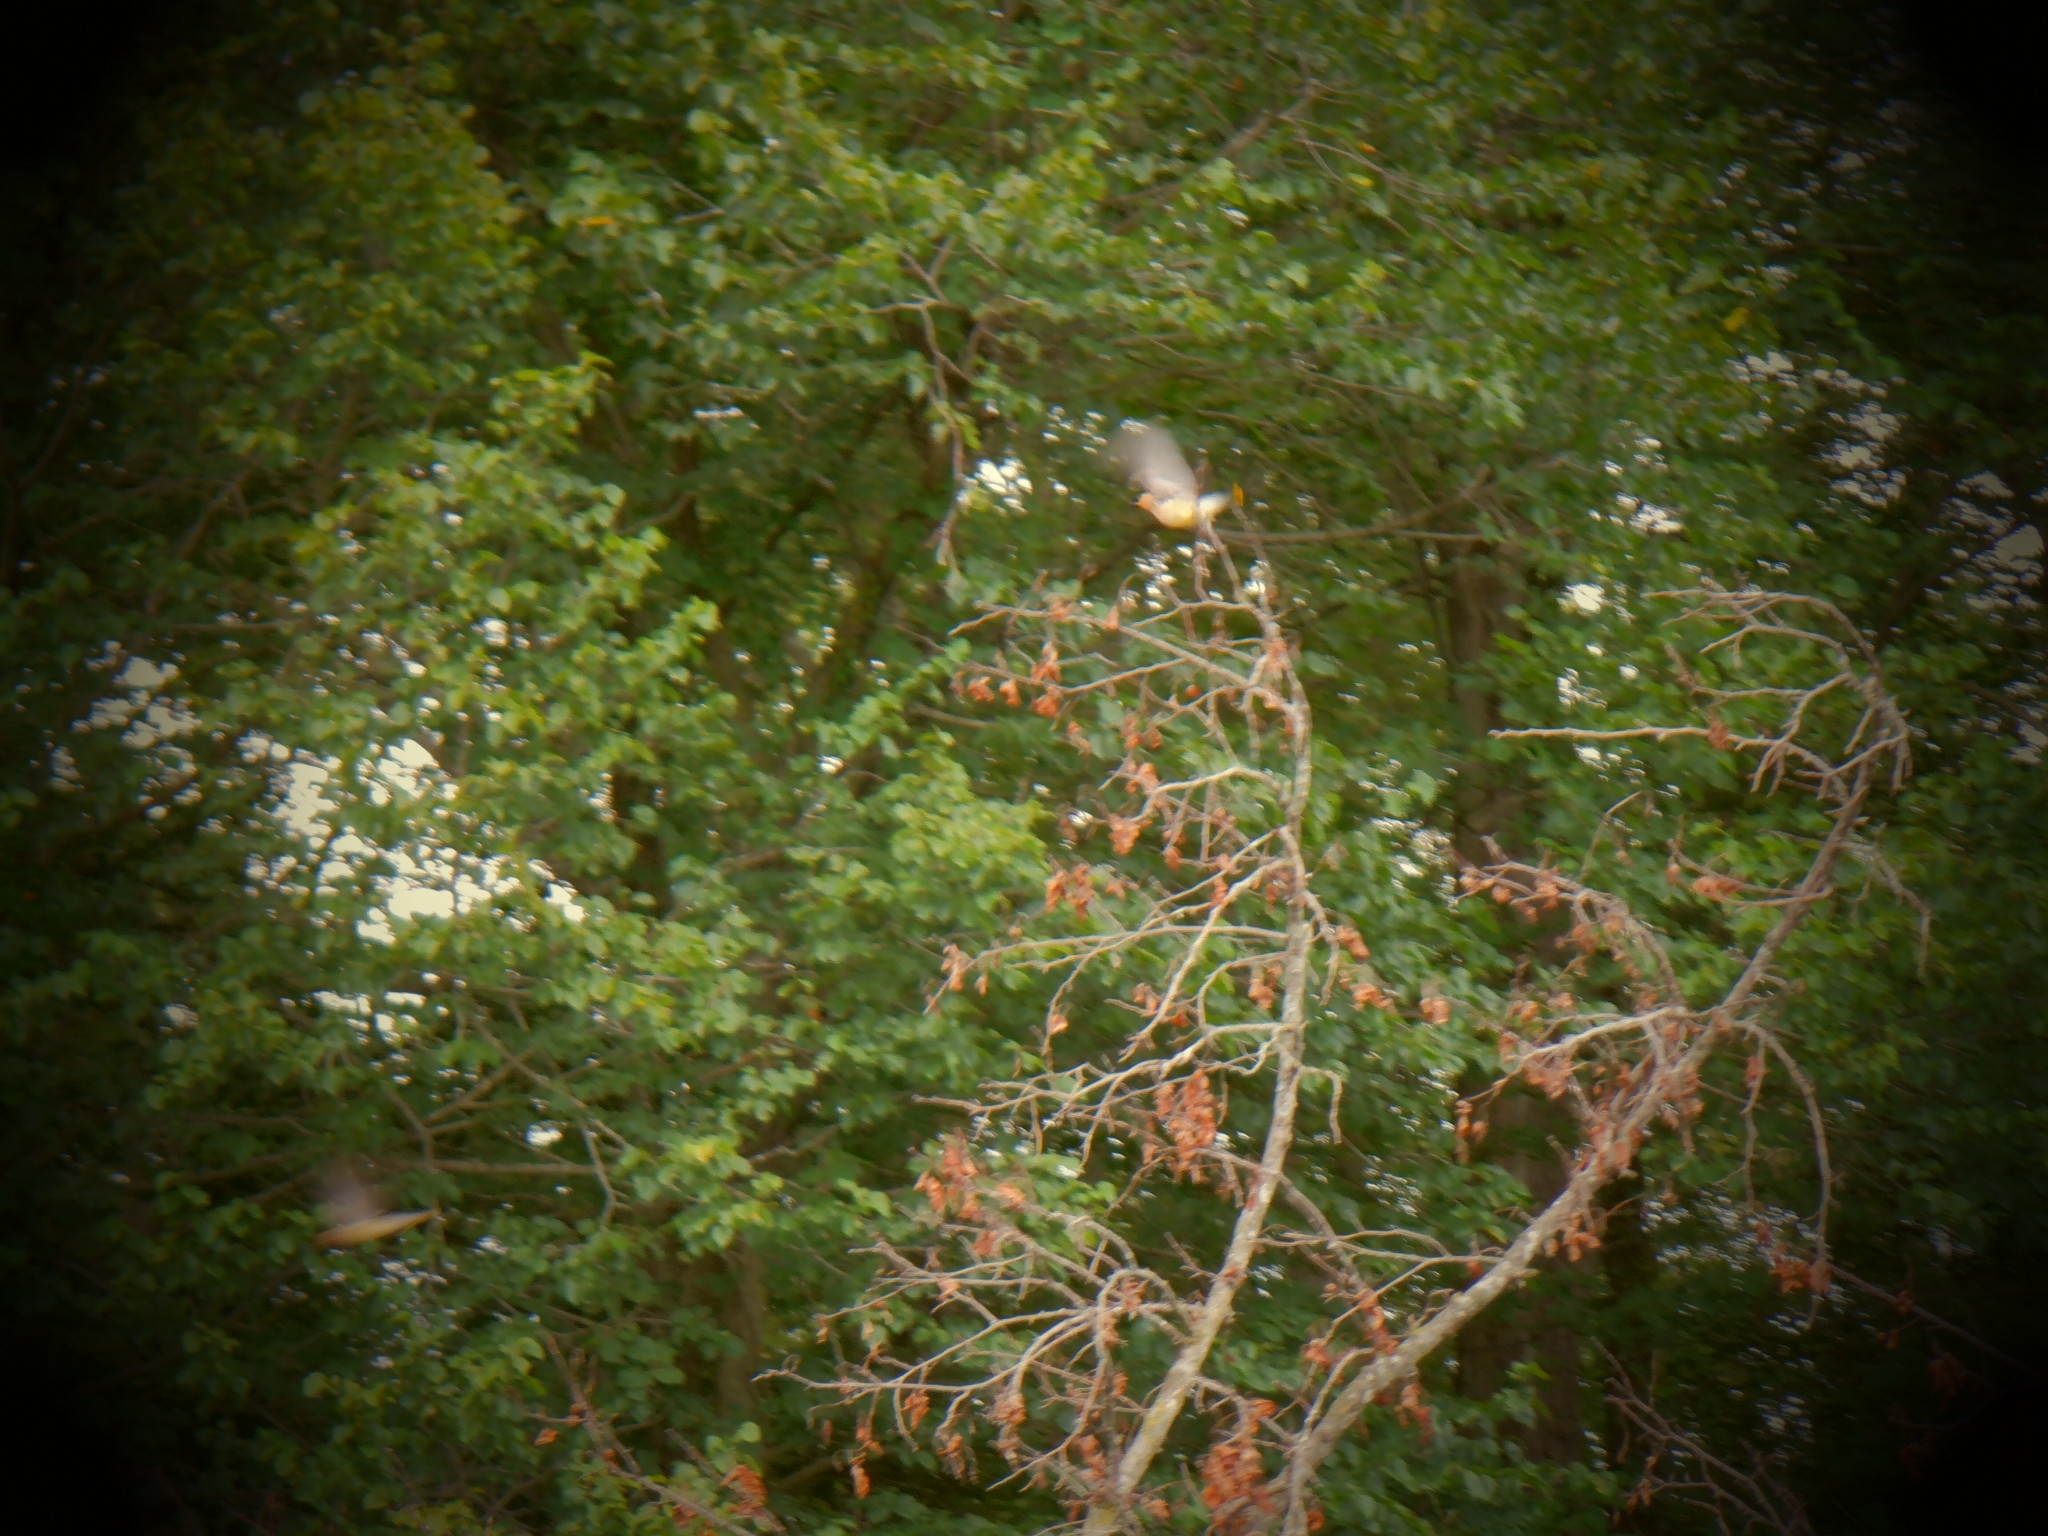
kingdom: Animalia
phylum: Chordata
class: Aves
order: Passeriformes
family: Bombycillidae
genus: Bombycilla
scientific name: Bombycilla cedrorum
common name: Cedar waxwing
